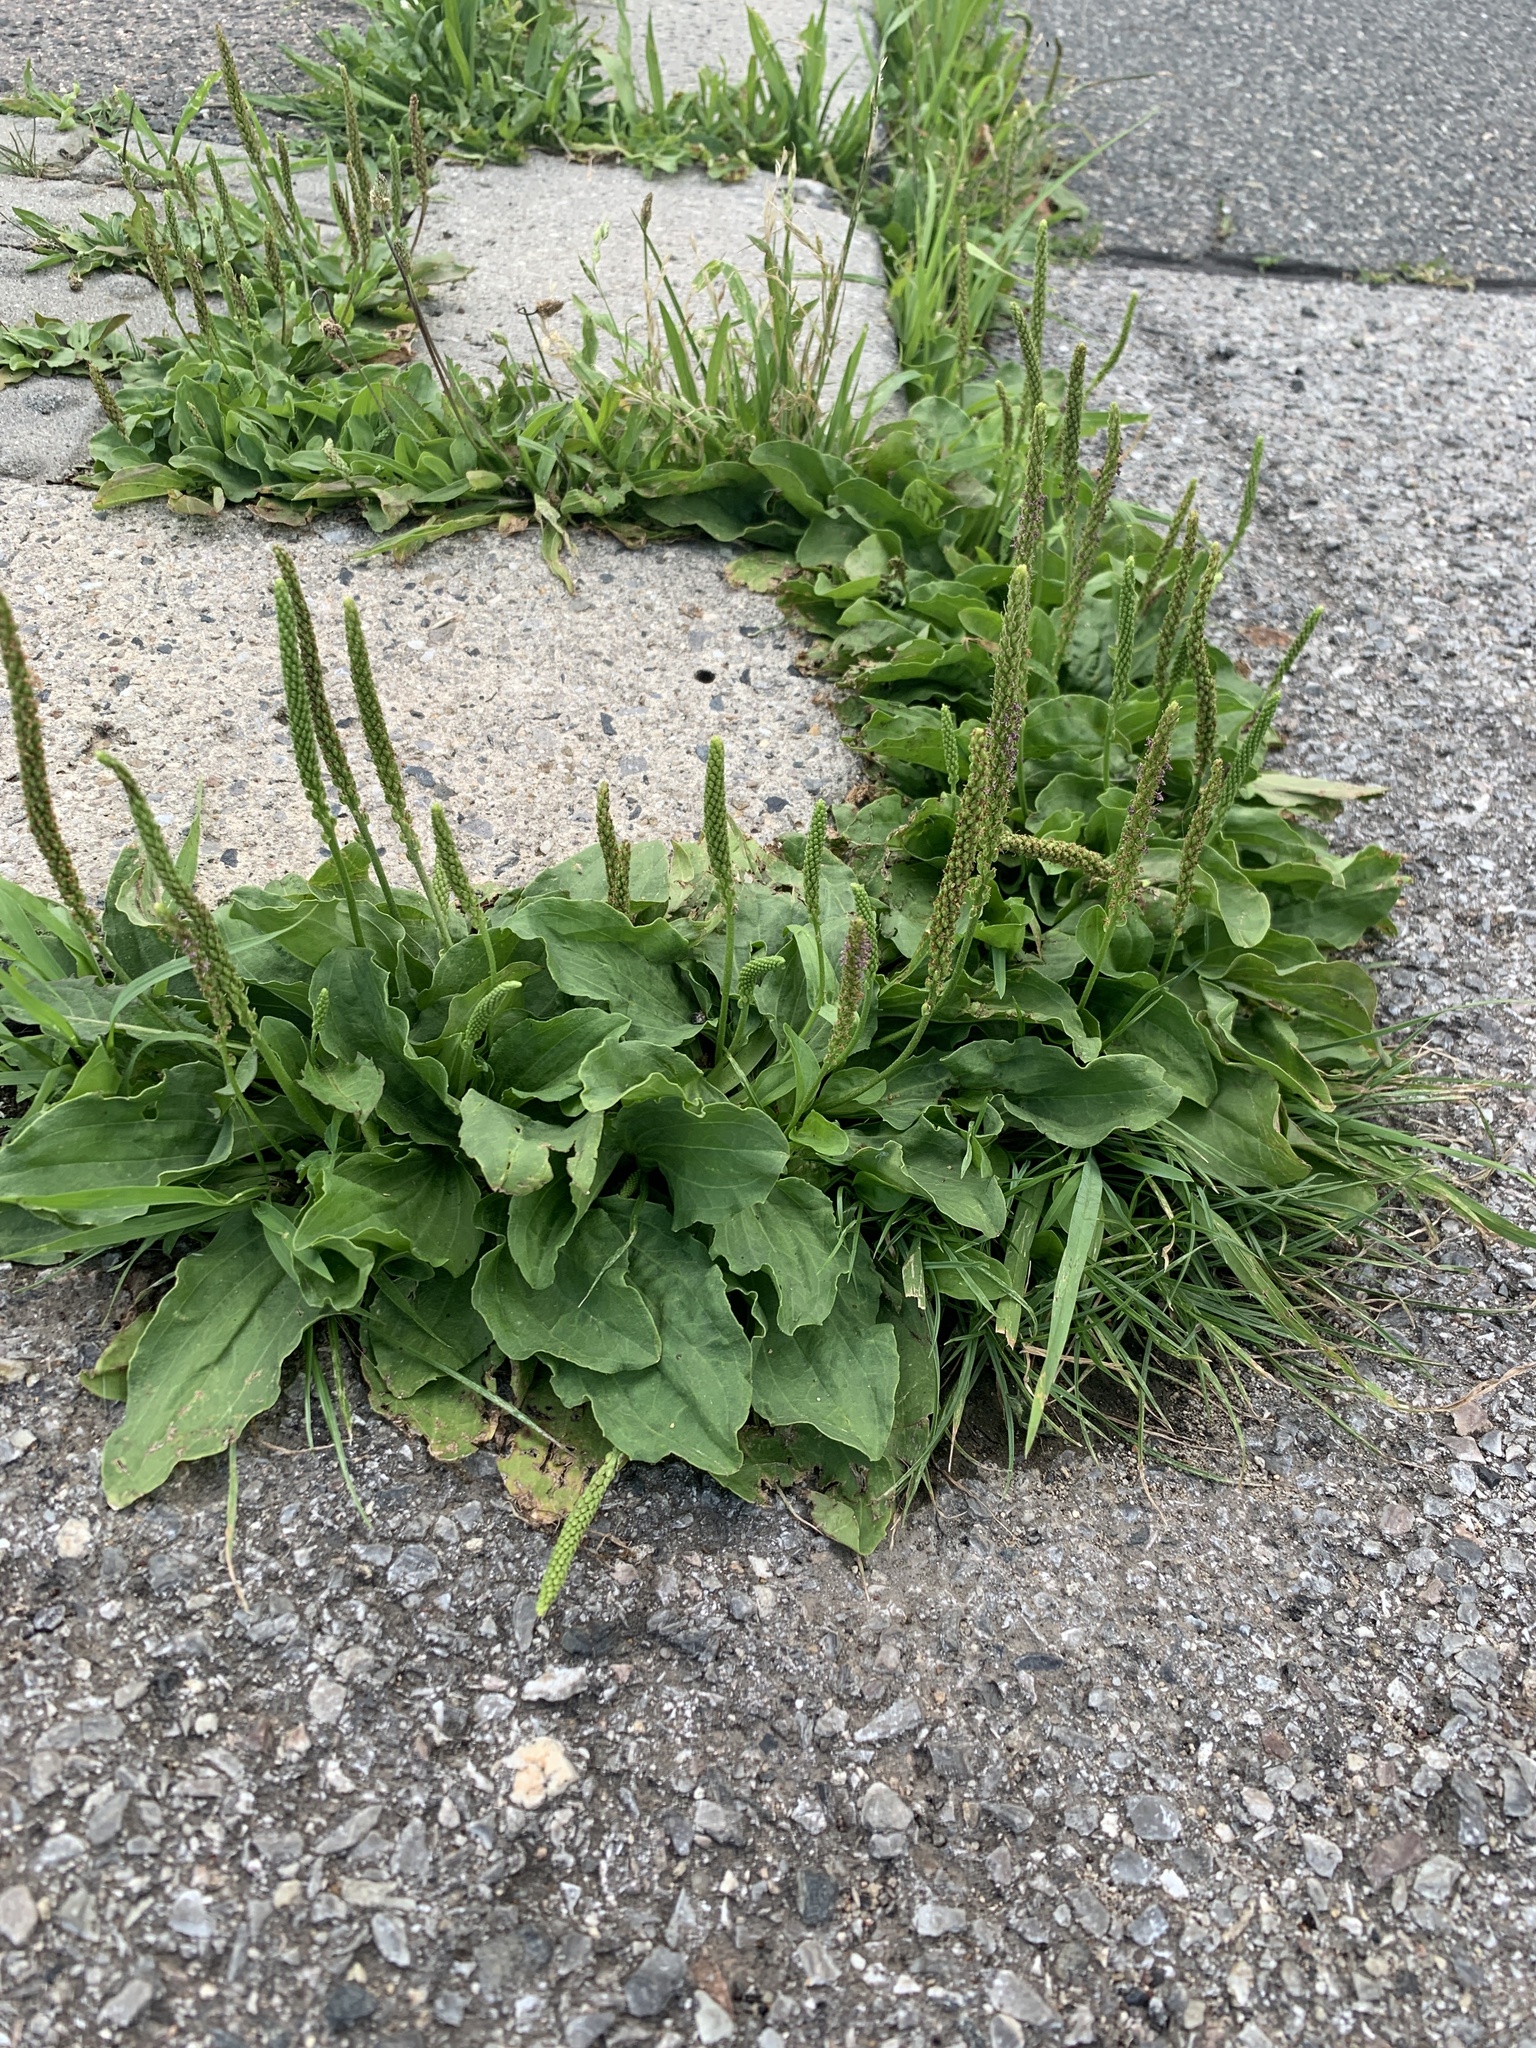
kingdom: Plantae
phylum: Tracheophyta
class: Magnoliopsida
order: Lamiales
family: Plantaginaceae
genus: Plantago
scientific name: Plantago major
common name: Common plantain
